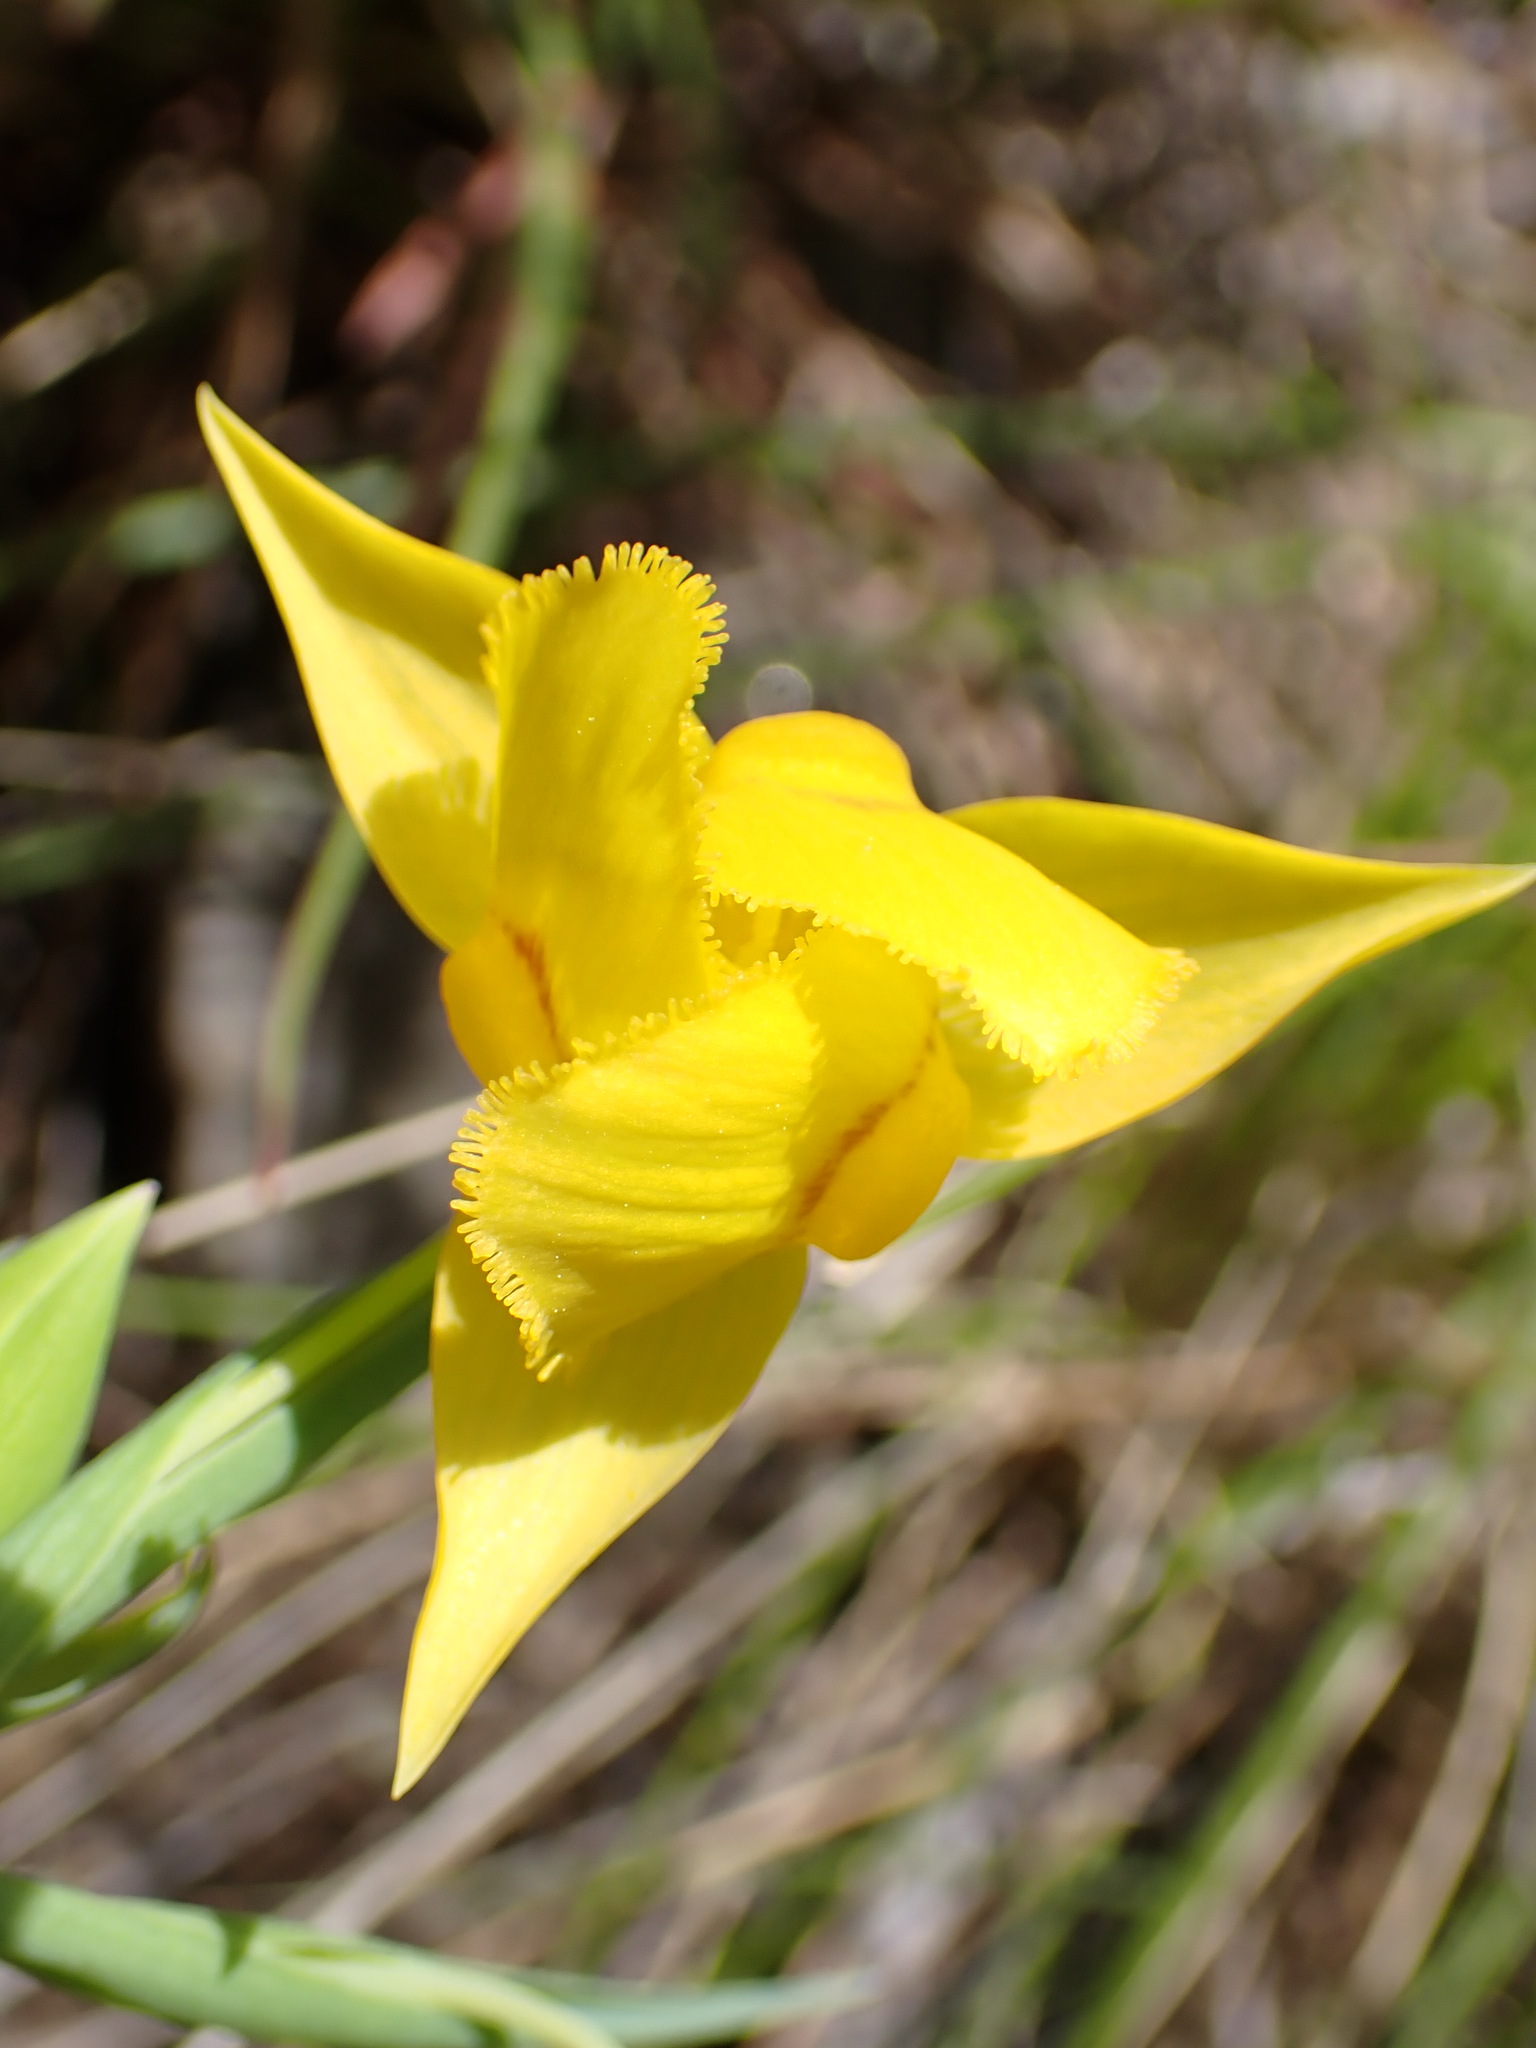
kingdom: Plantae
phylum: Tracheophyta
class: Liliopsida
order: Liliales
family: Liliaceae
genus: Calochortus
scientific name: Calochortus amabilis
